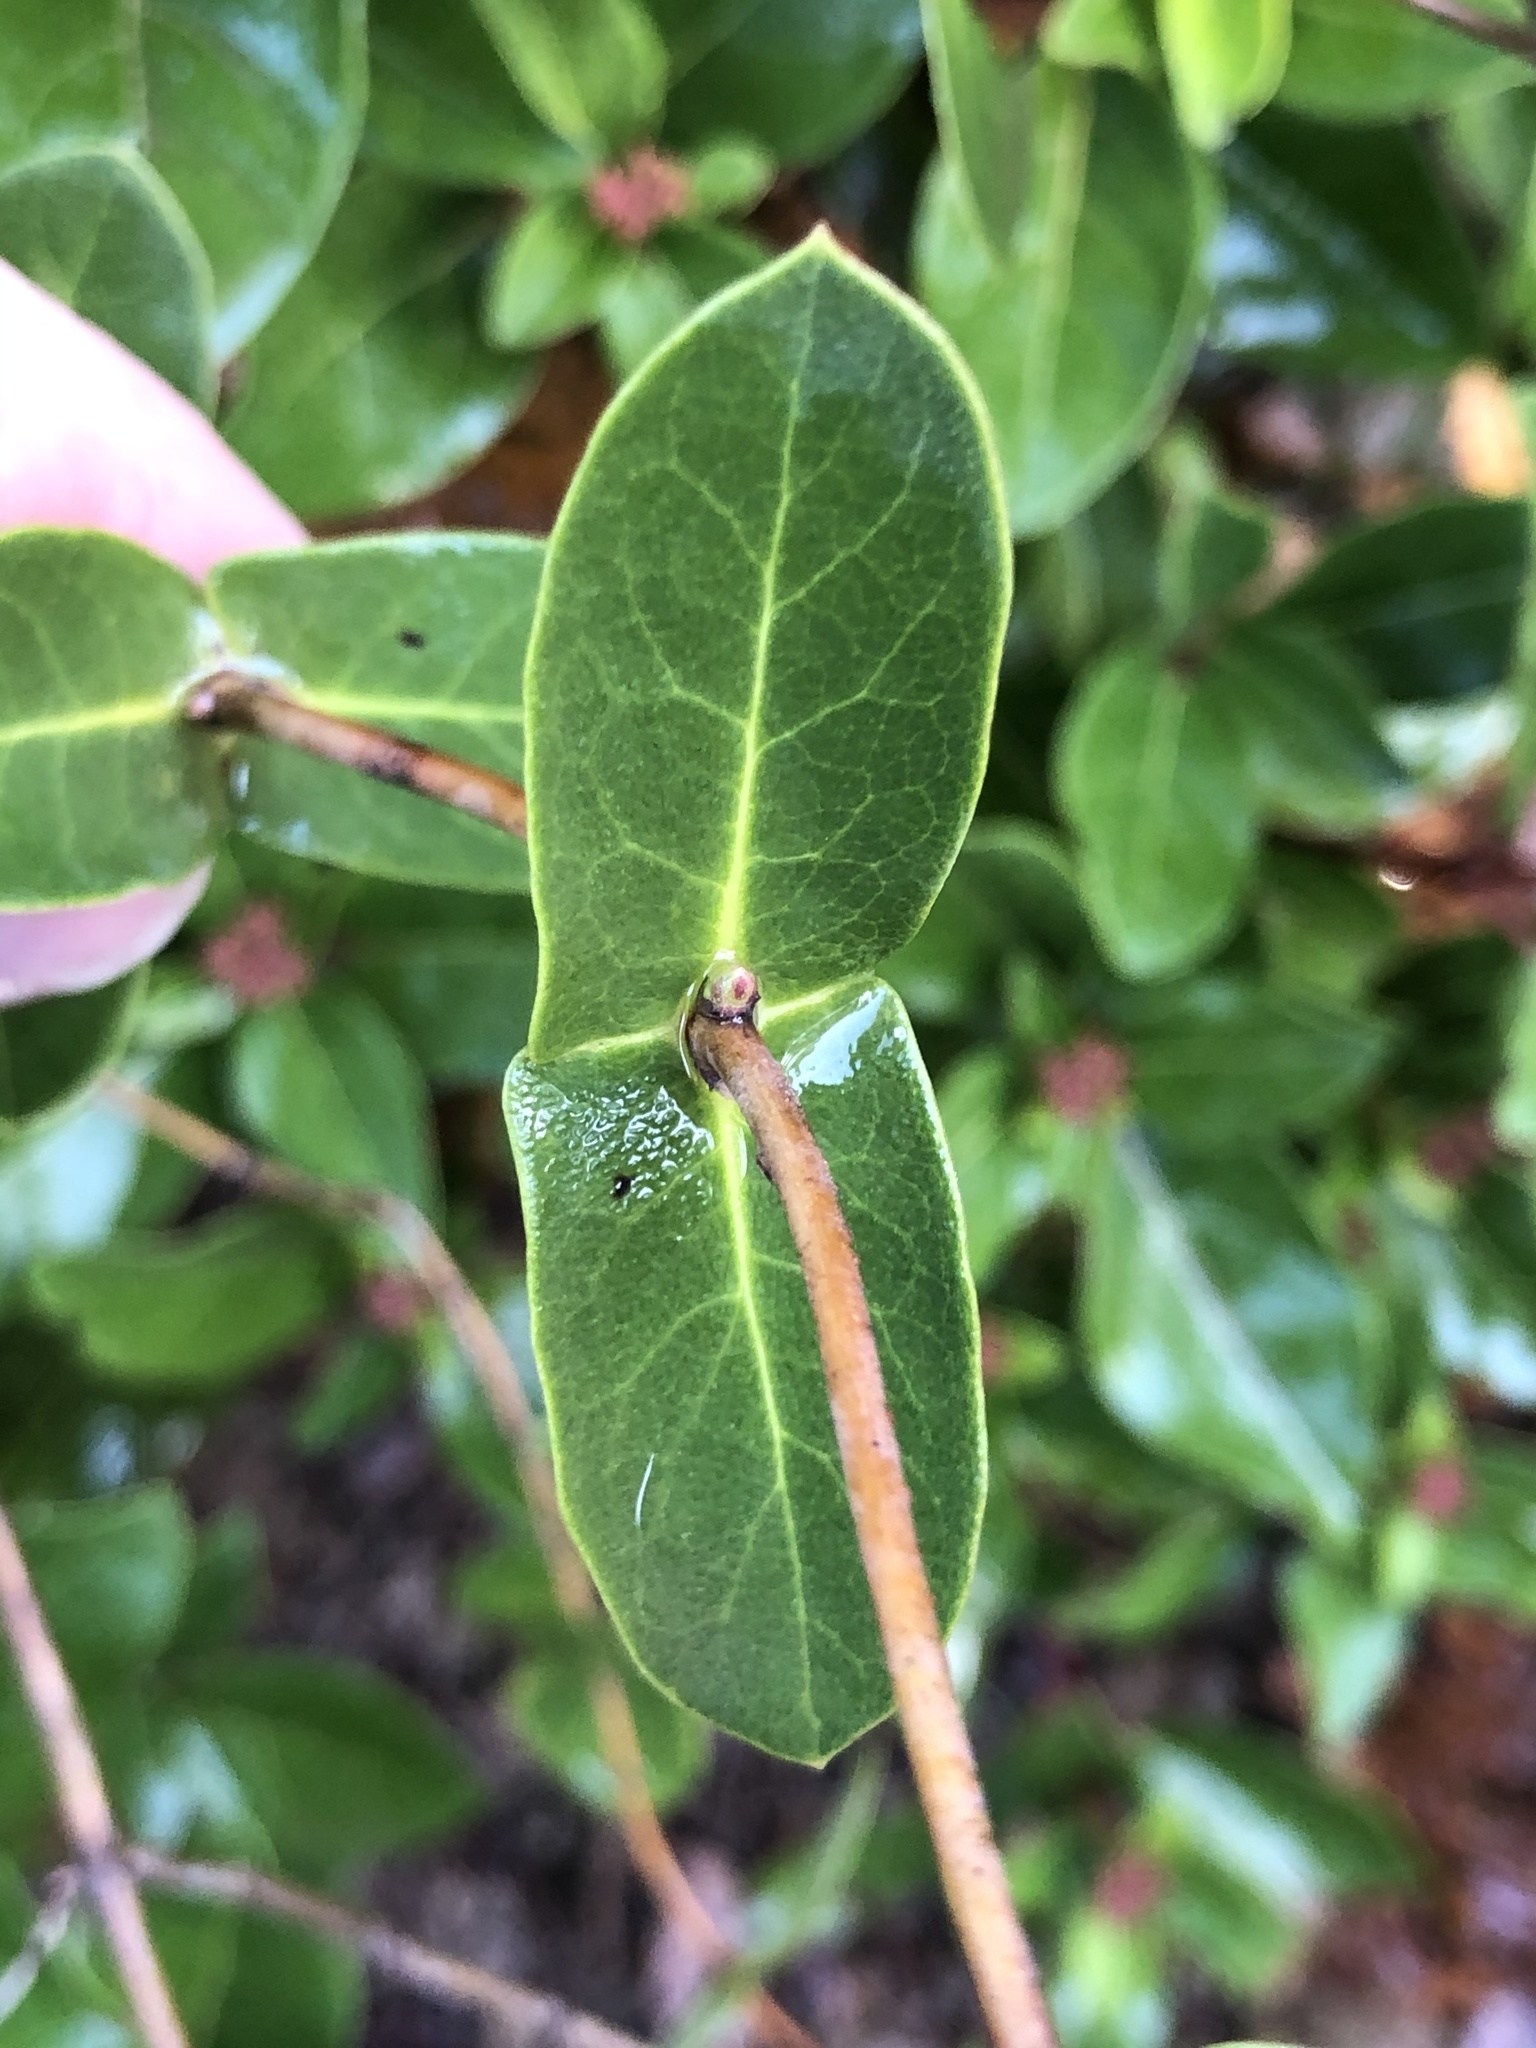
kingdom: Plantae
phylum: Tracheophyta
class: Magnoliopsida
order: Dipsacales
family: Caprifoliaceae
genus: Lonicera
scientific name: Lonicera implexa
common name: Minorca honeysuckle
